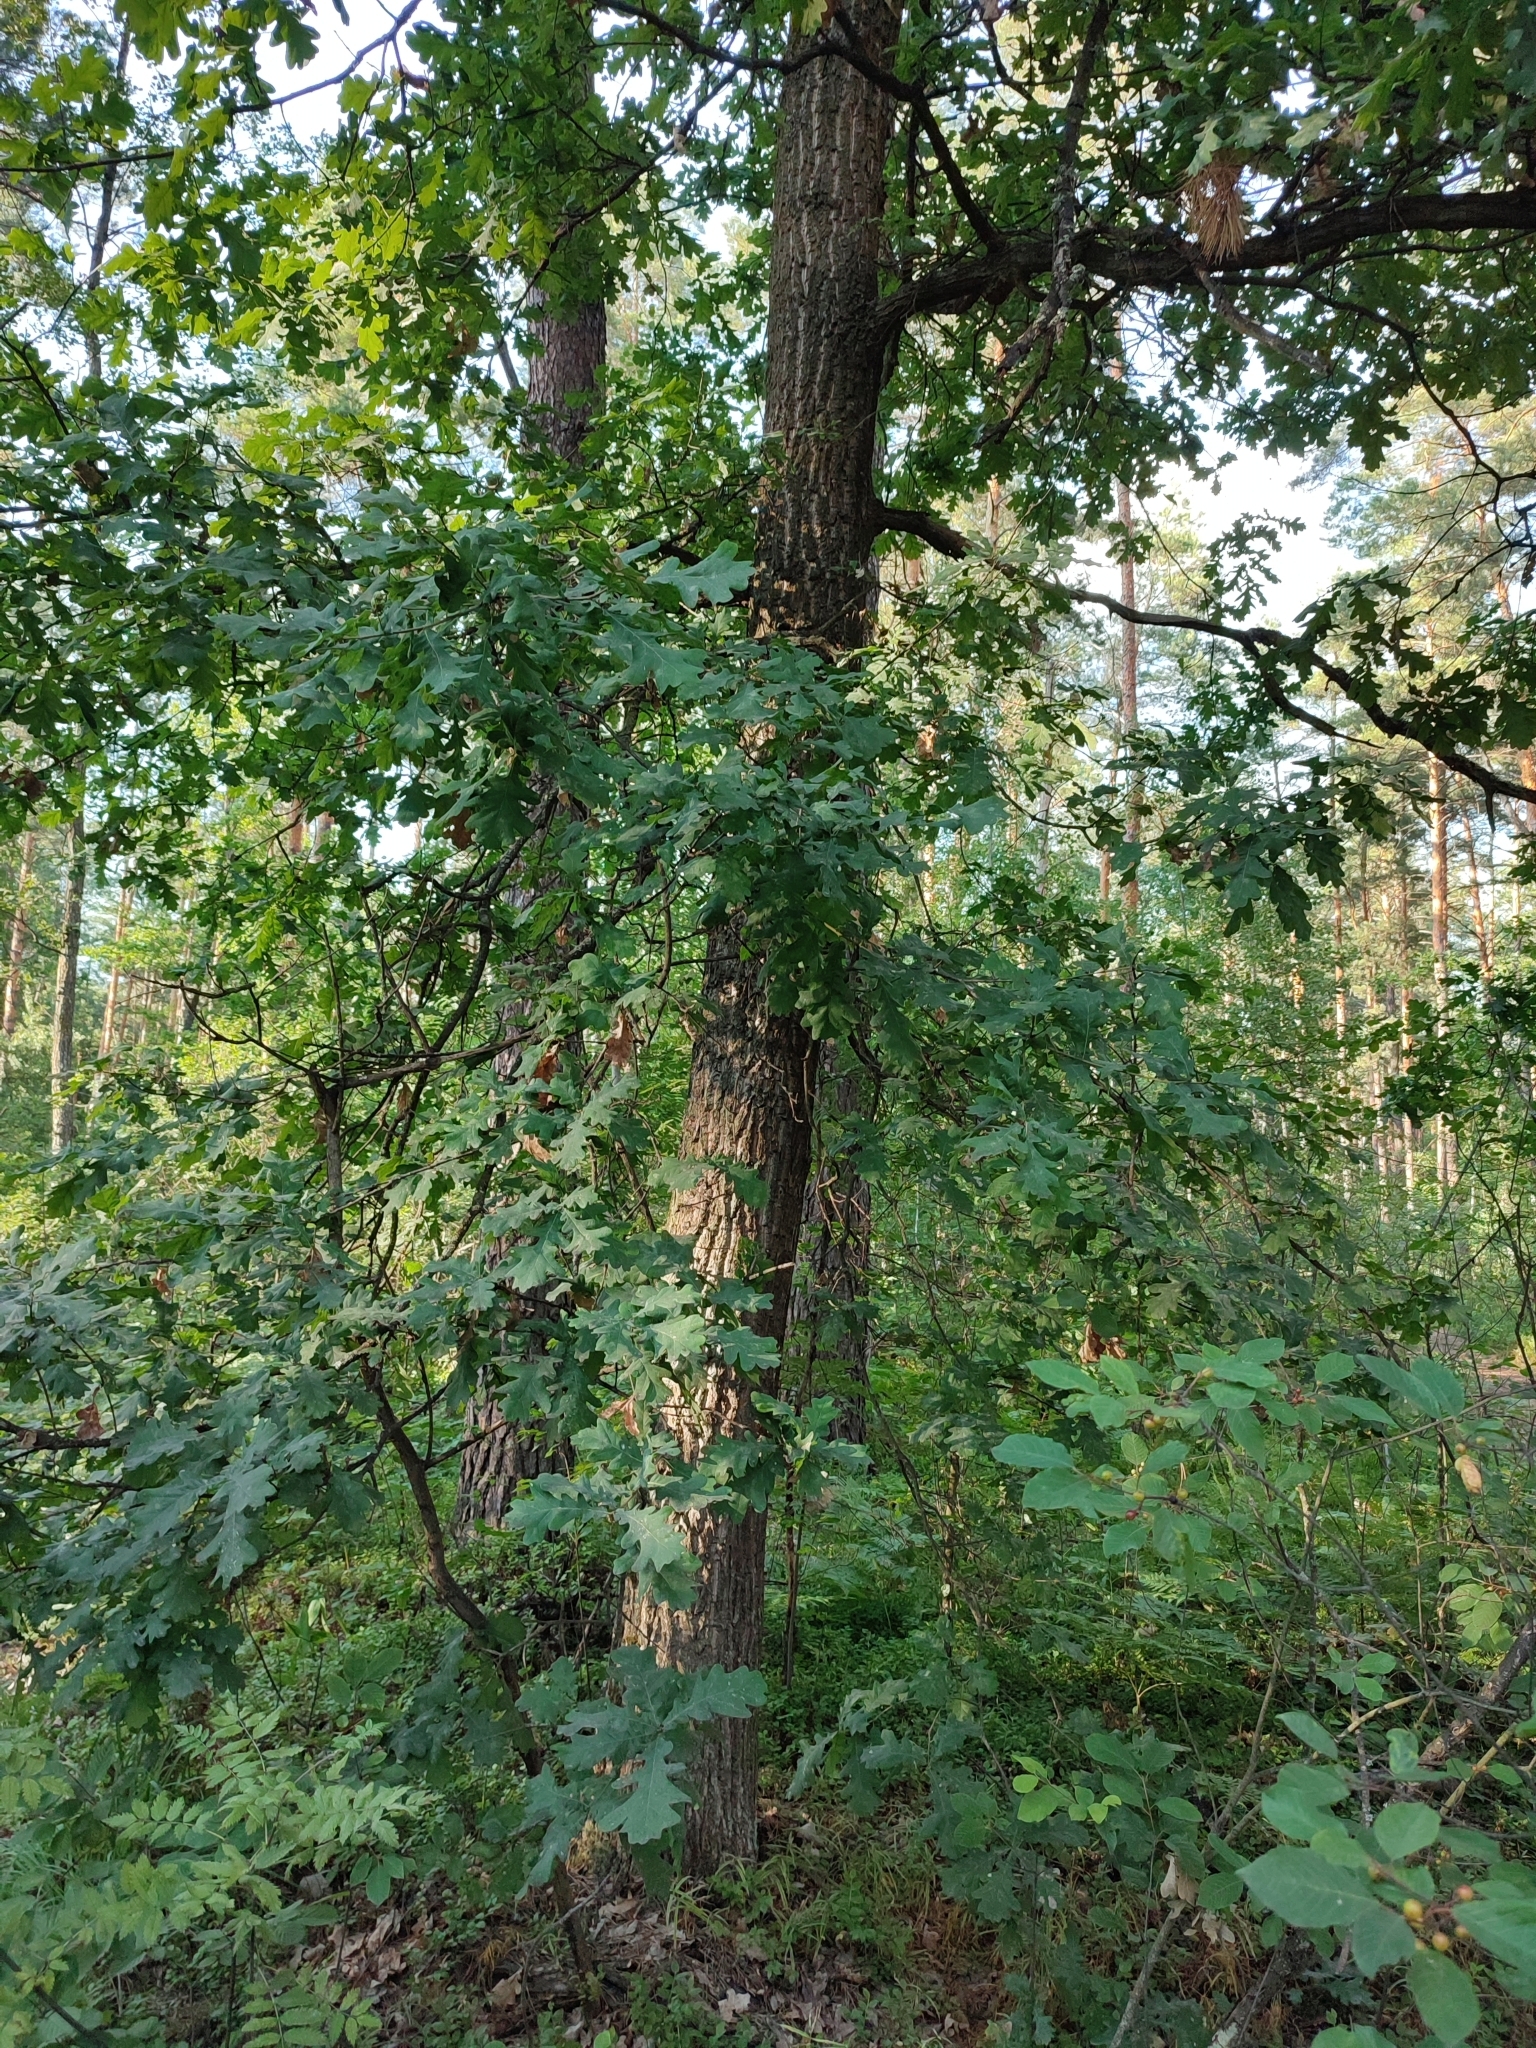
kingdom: Plantae
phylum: Tracheophyta
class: Magnoliopsida
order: Fagales
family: Fagaceae
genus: Quercus
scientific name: Quercus robur
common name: Pedunculate oak
